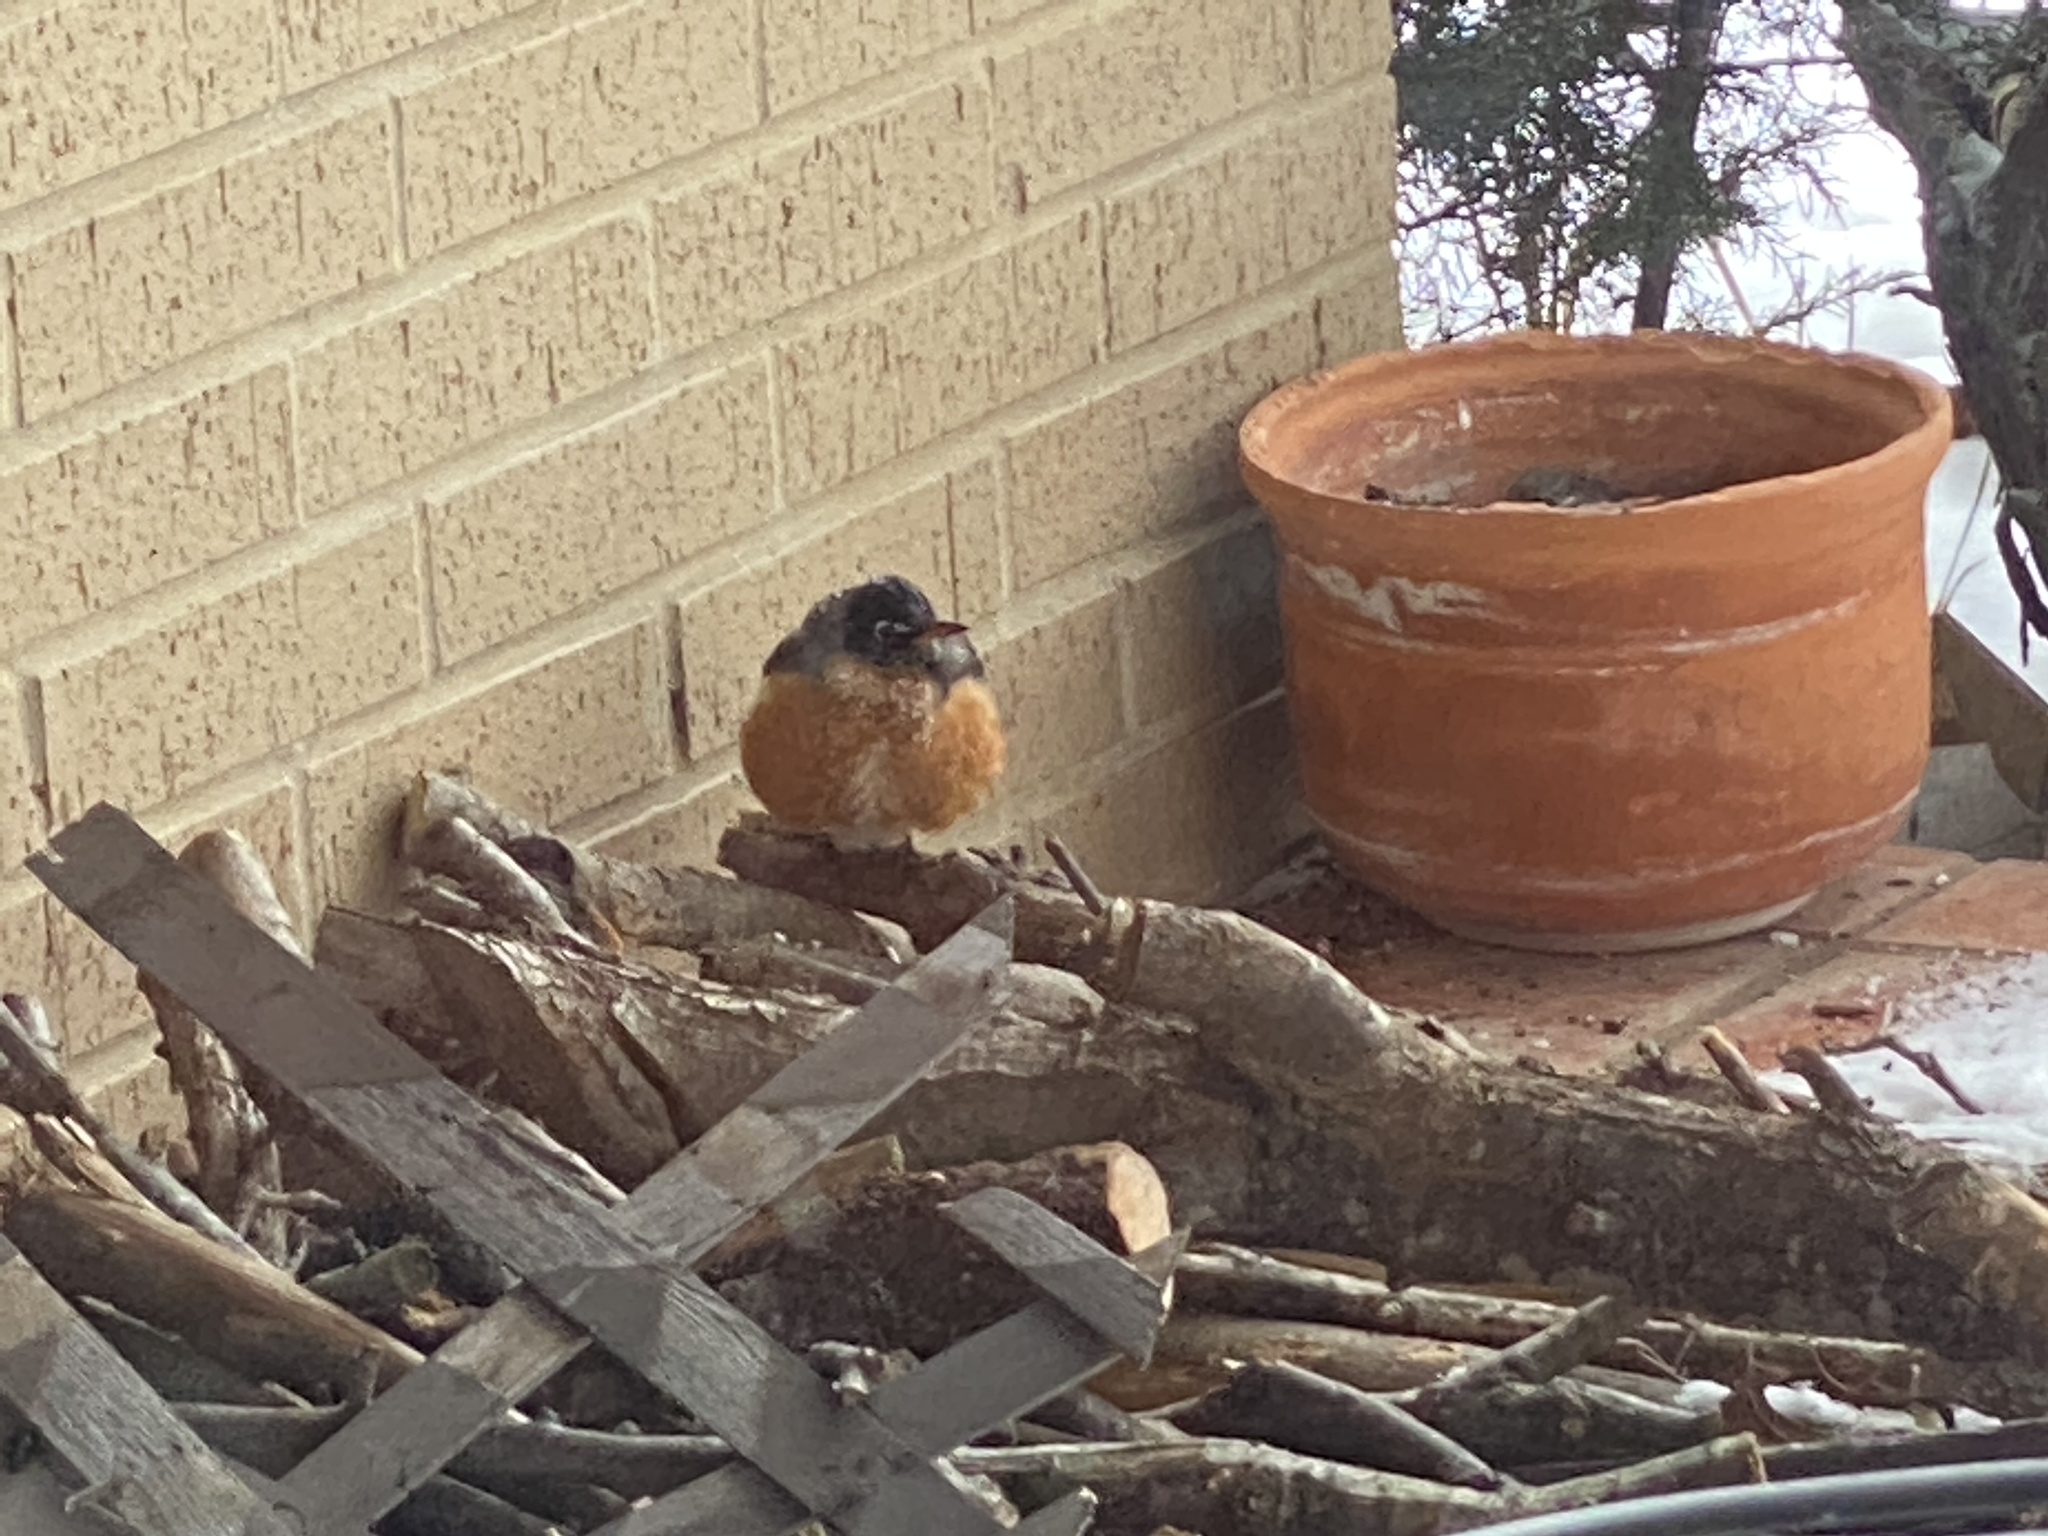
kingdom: Animalia
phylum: Chordata
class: Aves
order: Passeriformes
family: Turdidae
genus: Turdus
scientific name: Turdus migratorius
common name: American robin
